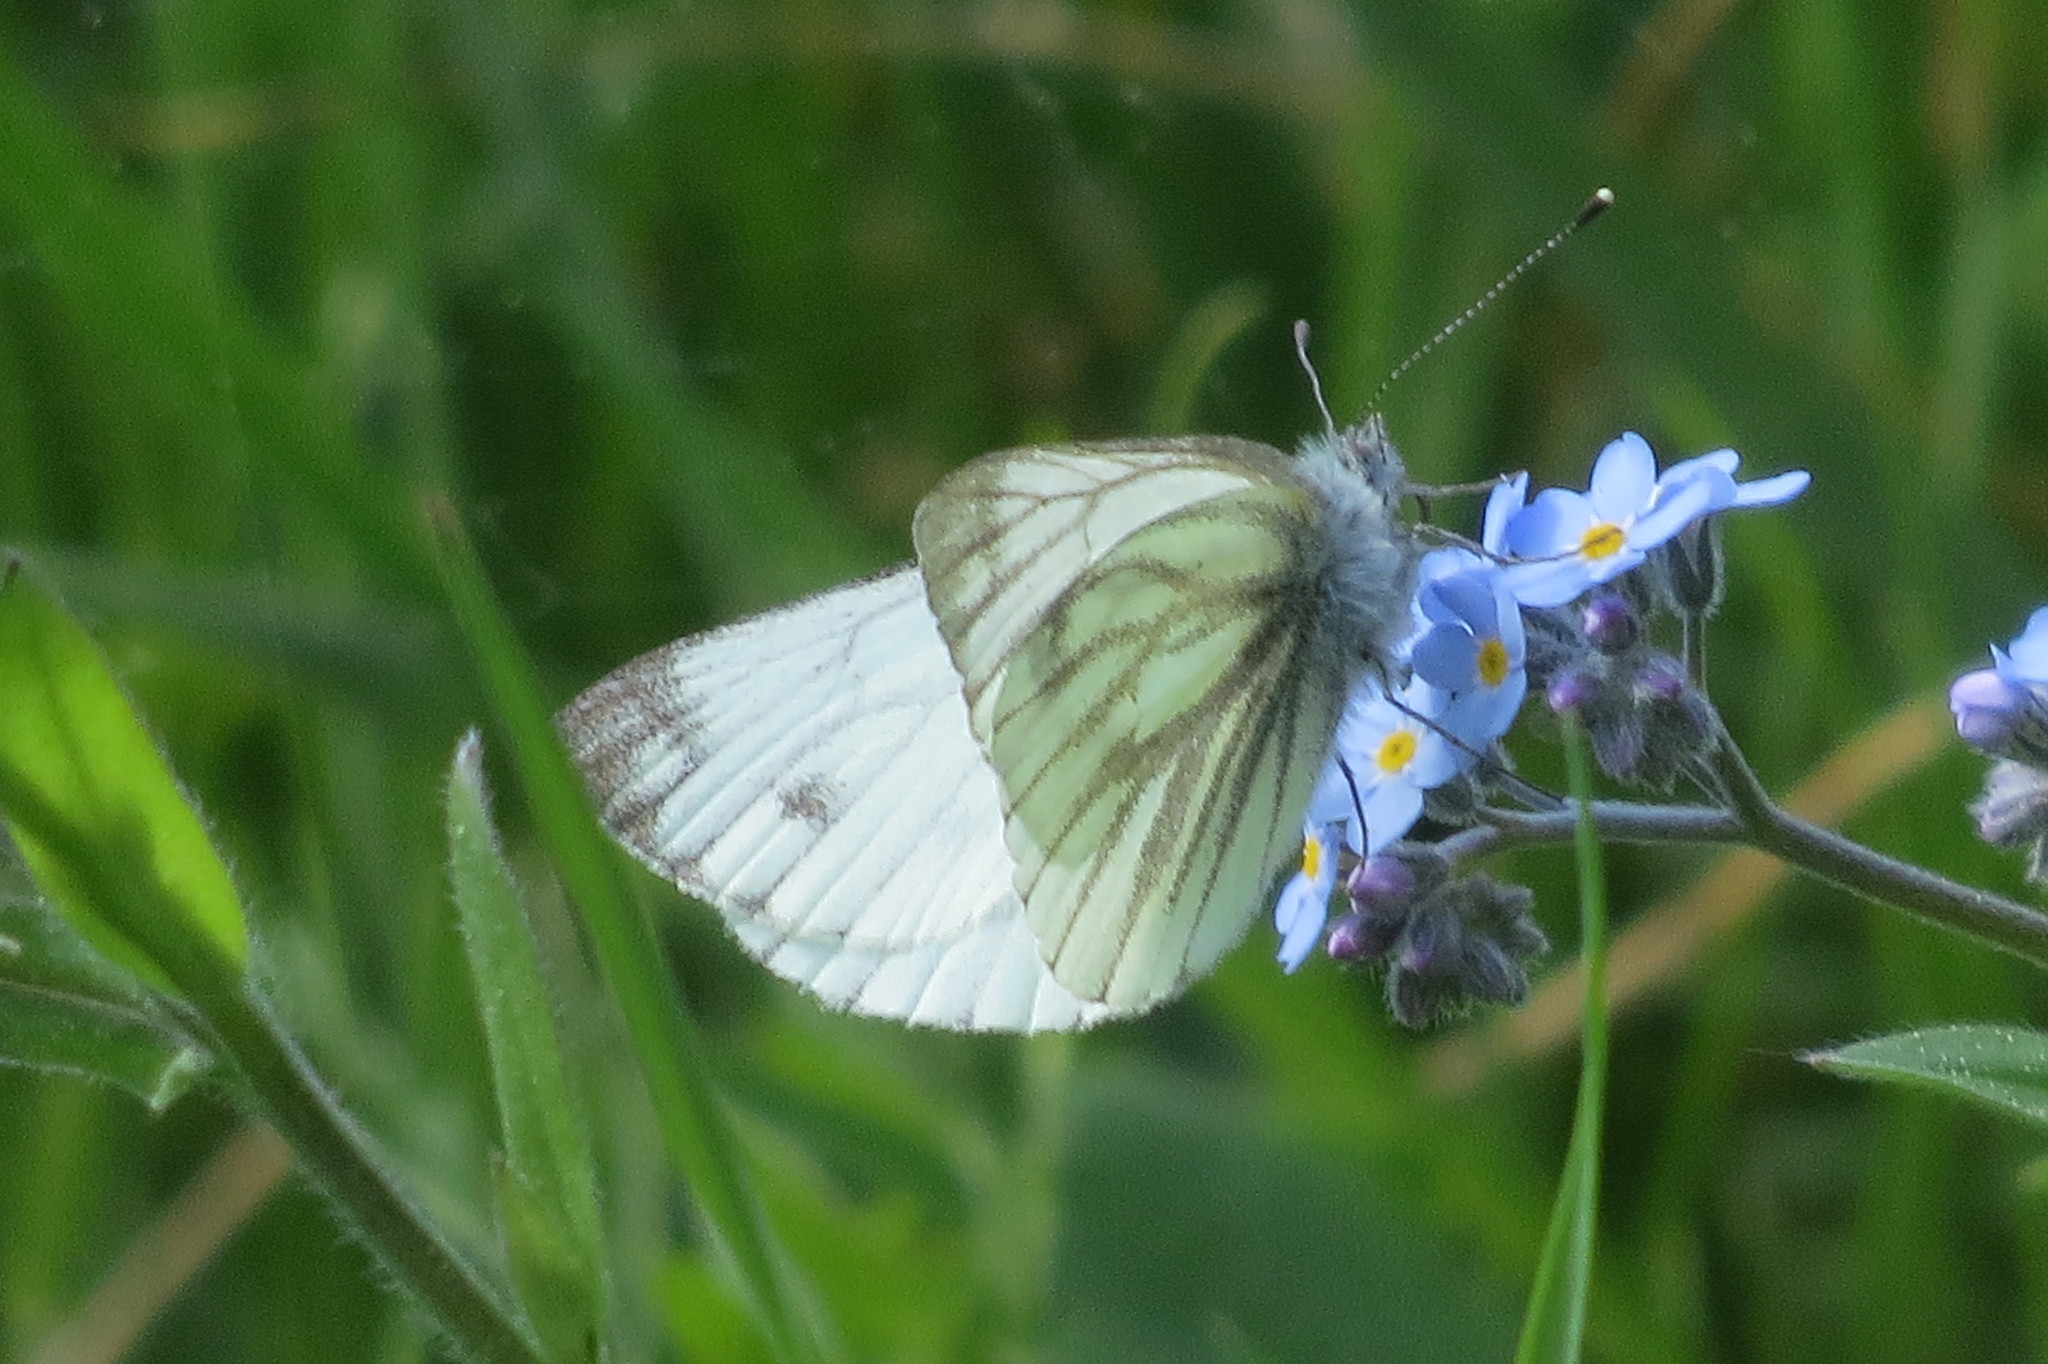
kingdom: Animalia
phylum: Arthropoda
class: Insecta
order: Lepidoptera
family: Pieridae
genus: Pieris
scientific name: Pieris napi
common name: Green-veined white
